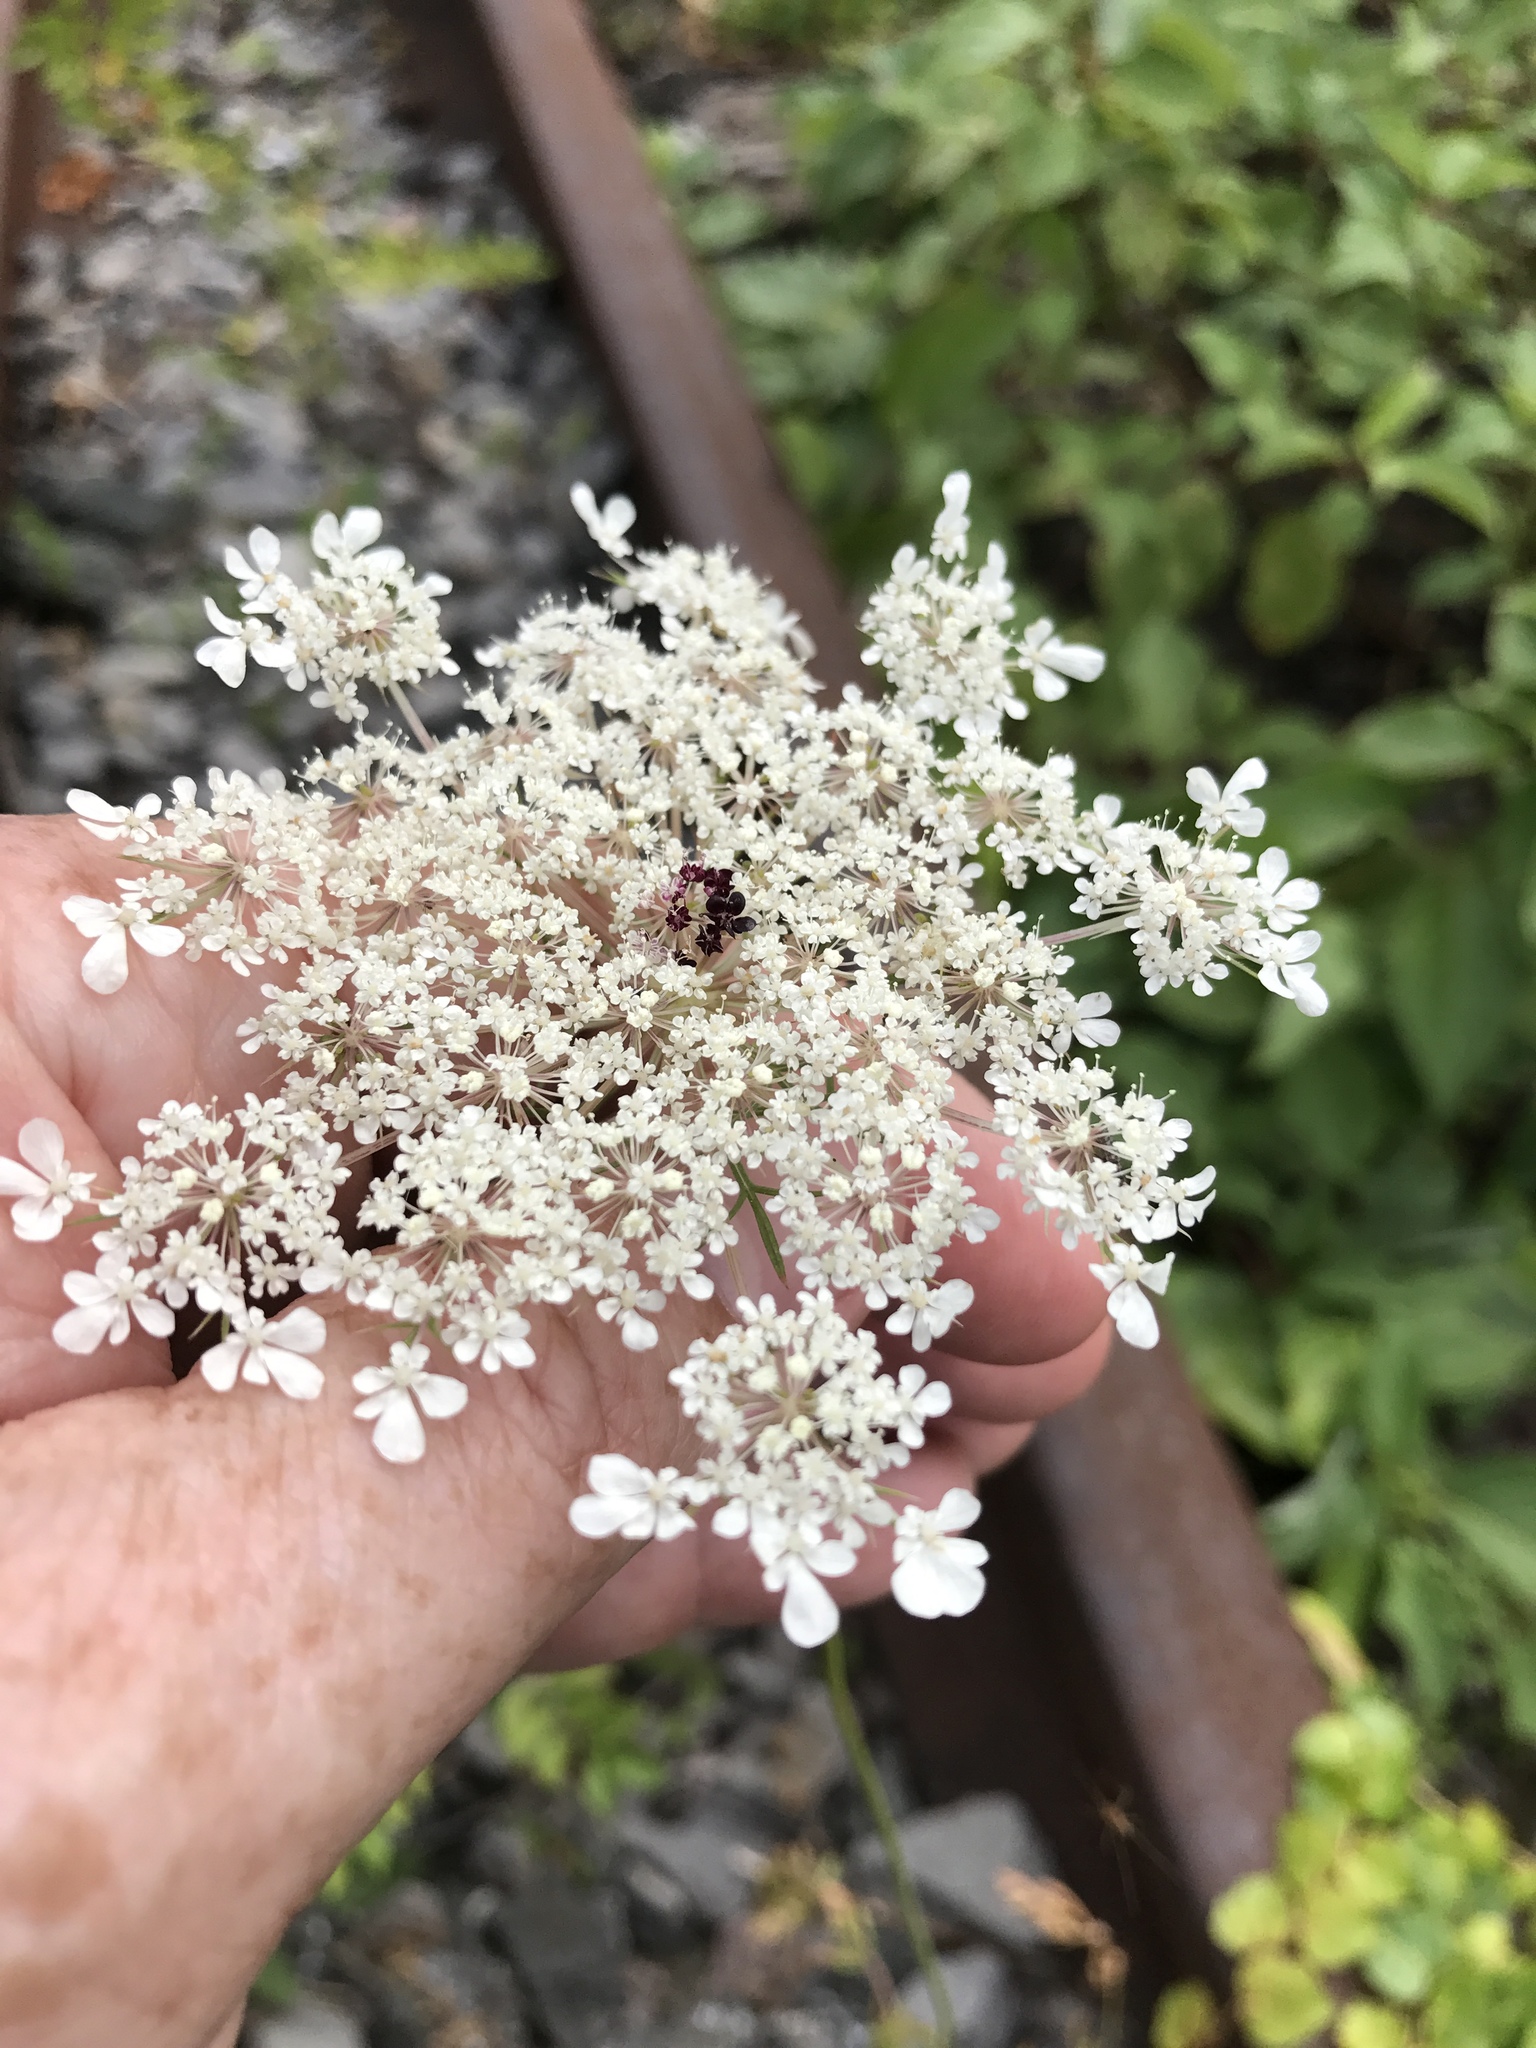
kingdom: Plantae
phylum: Tracheophyta
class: Magnoliopsida
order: Apiales
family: Apiaceae
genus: Daucus
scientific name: Daucus carota
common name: Wild carrot
